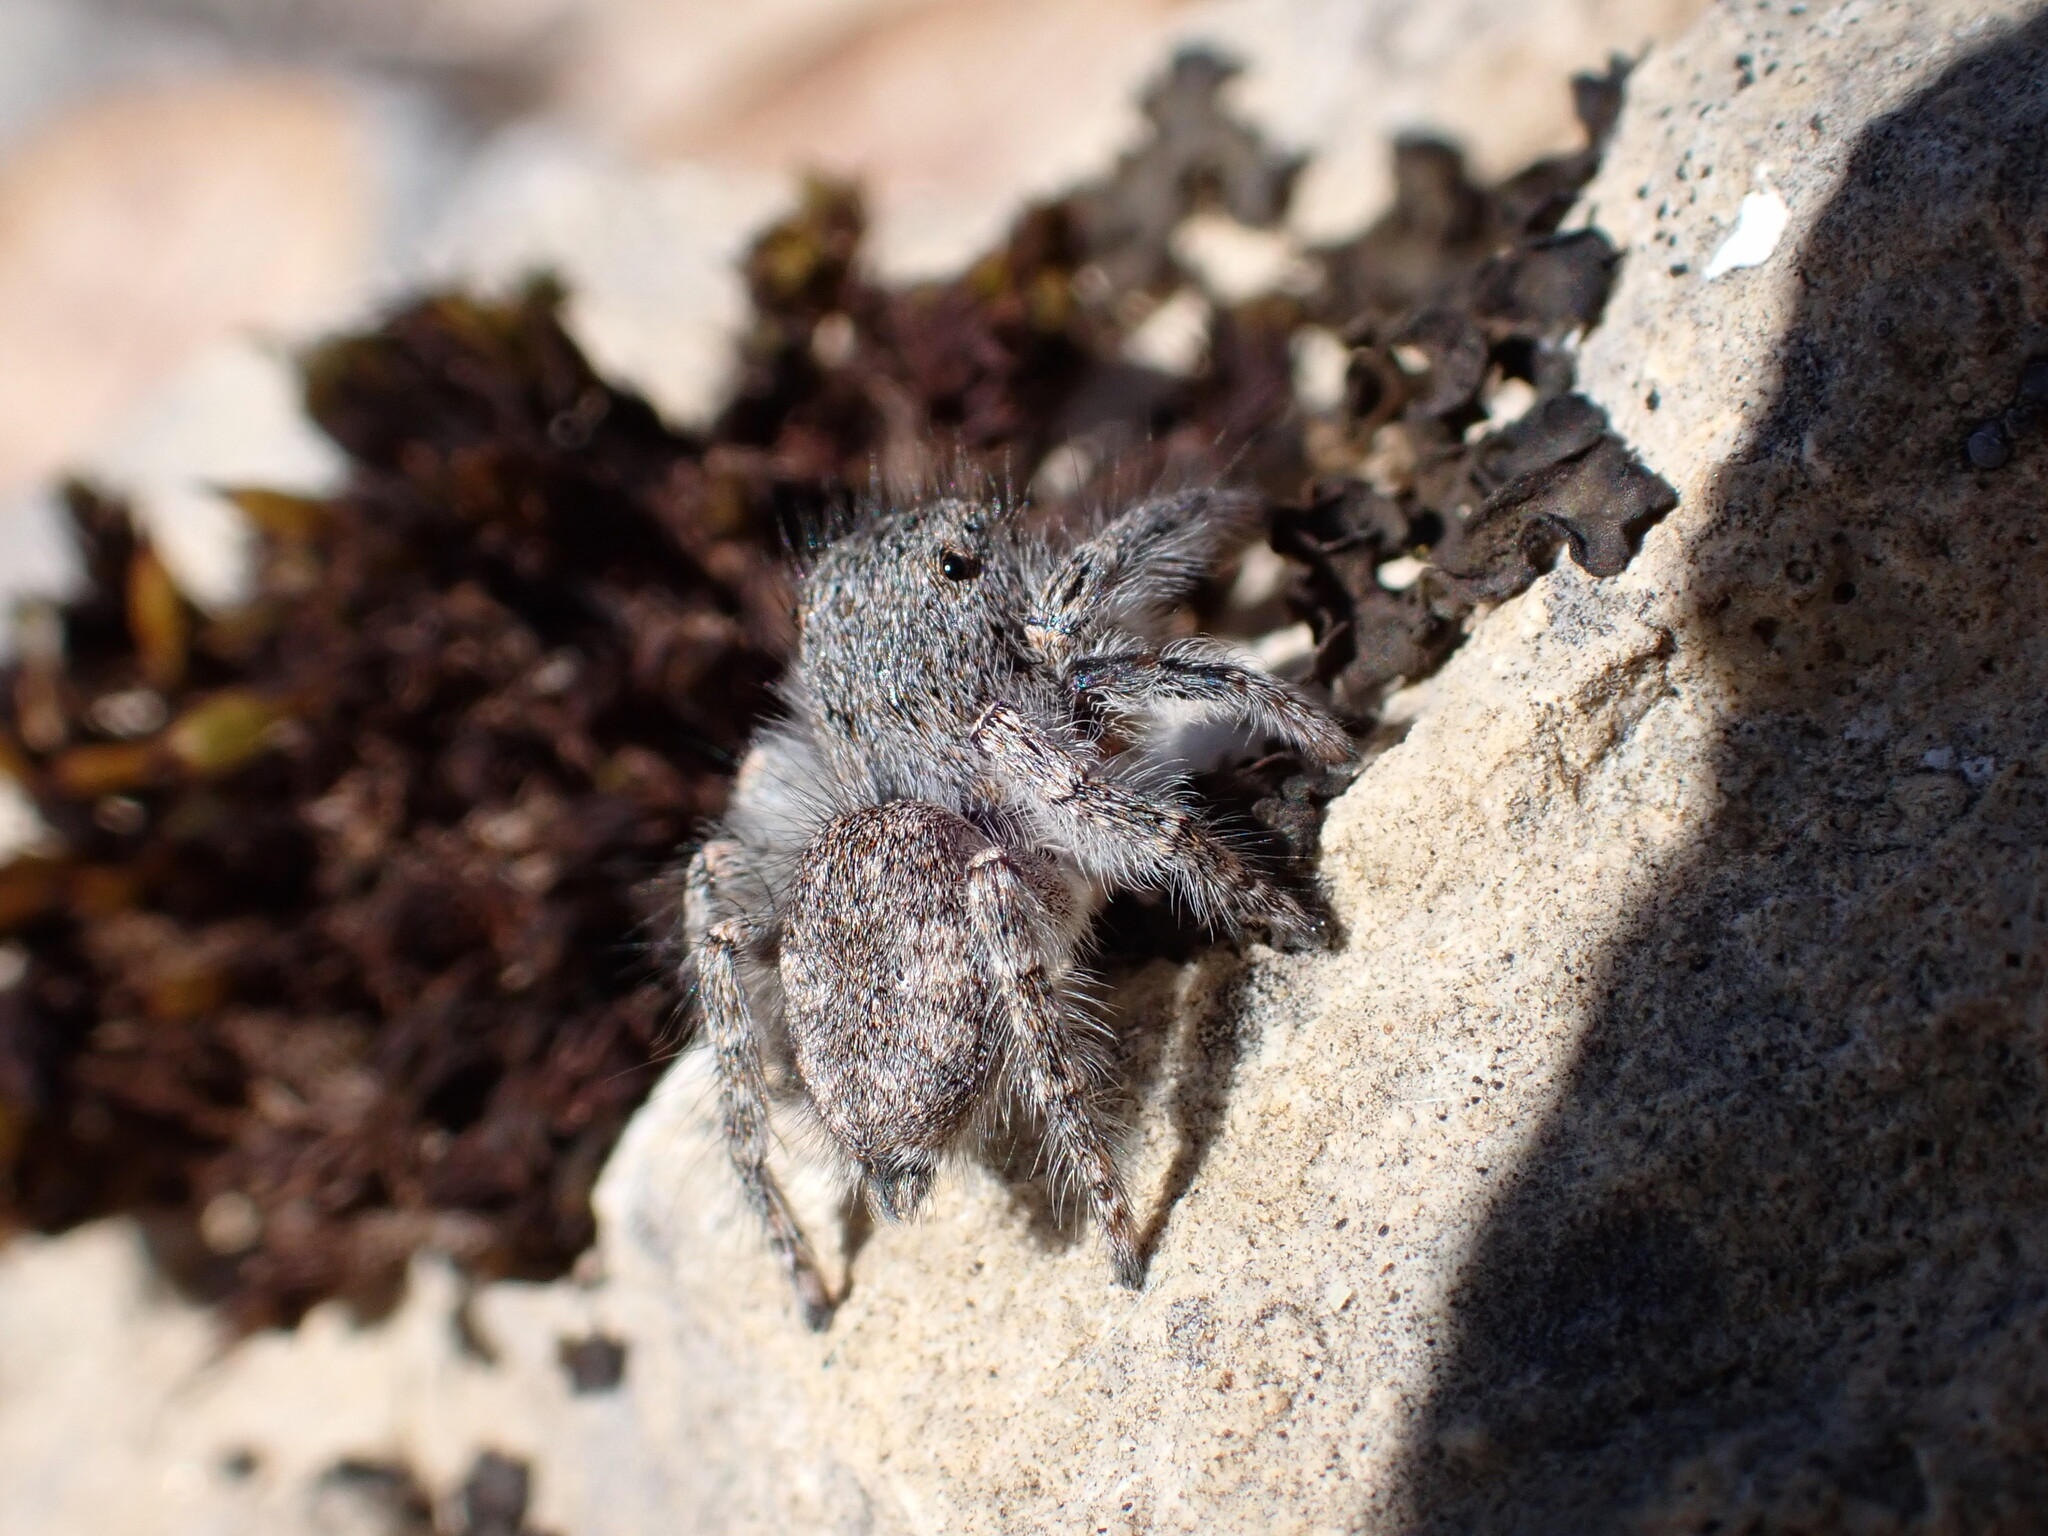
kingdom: Animalia
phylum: Arthropoda
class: Arachnida
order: Araneae
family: Salticidae
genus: Philaeus
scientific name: Philaeus chrysops
